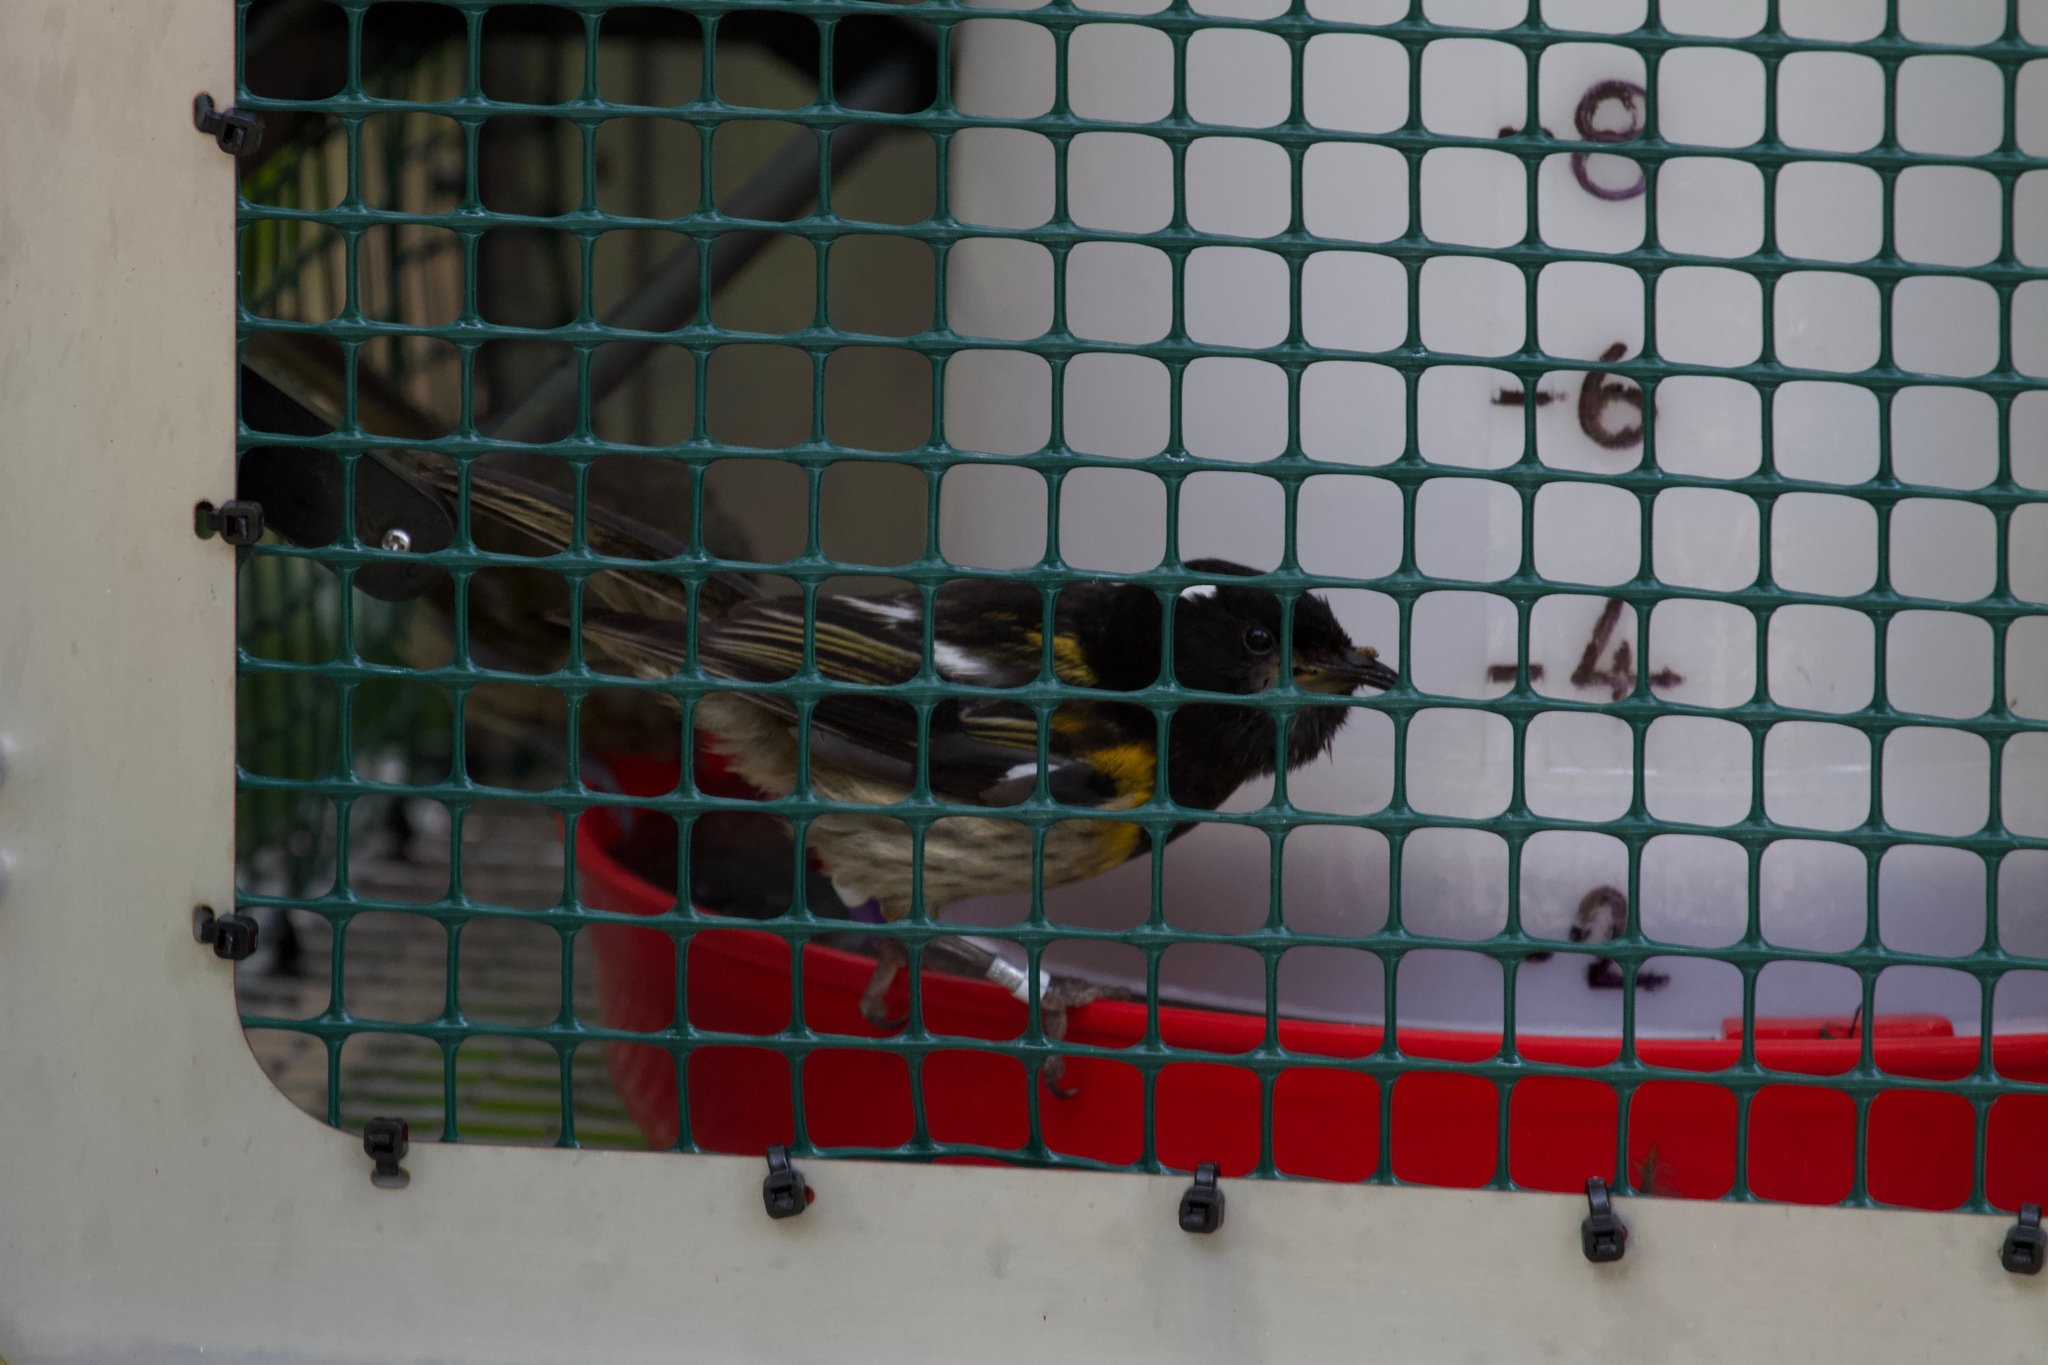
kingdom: Animalia
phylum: Chordata
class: Aves
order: Passeriformes
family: Notiomystidae
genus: Notiomystis
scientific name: Notiomystis cincta
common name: Stitchbird
